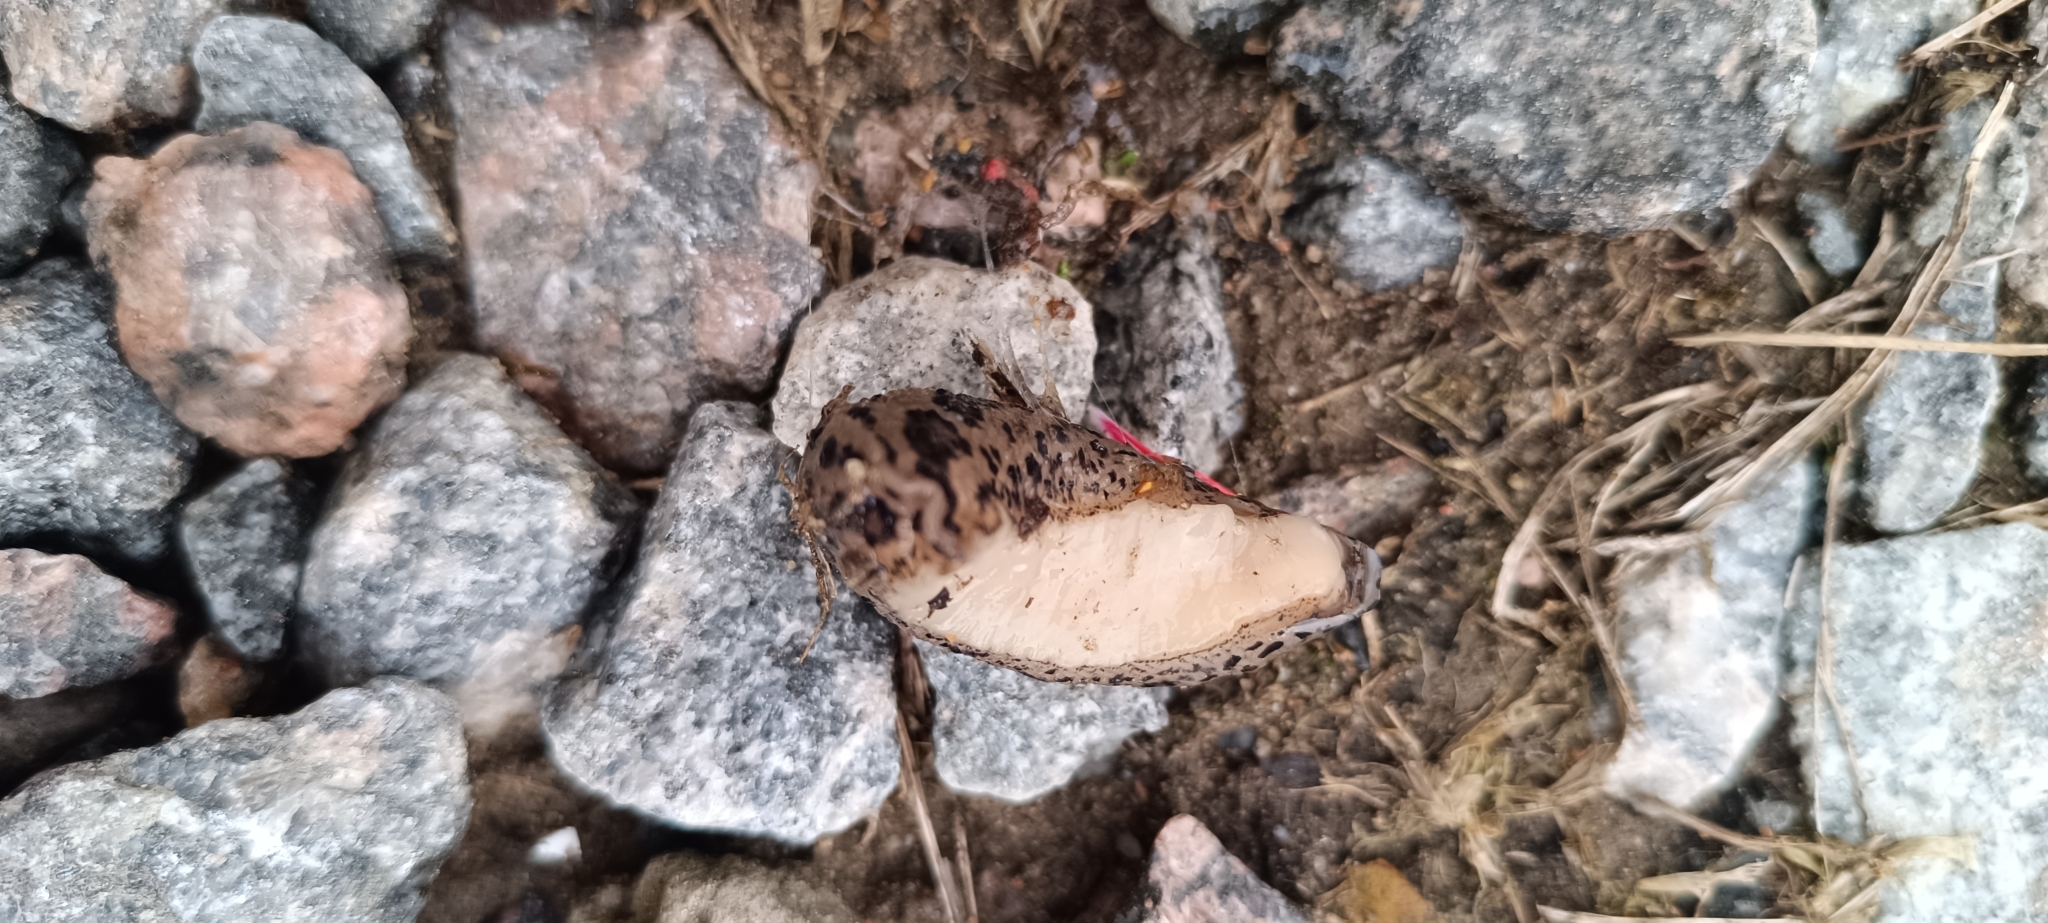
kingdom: Animalia
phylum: Mollusca
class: Gastropoda
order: Stylommatophora
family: Limacidae
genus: Limax
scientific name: Limax maximus
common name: Great grey slug
